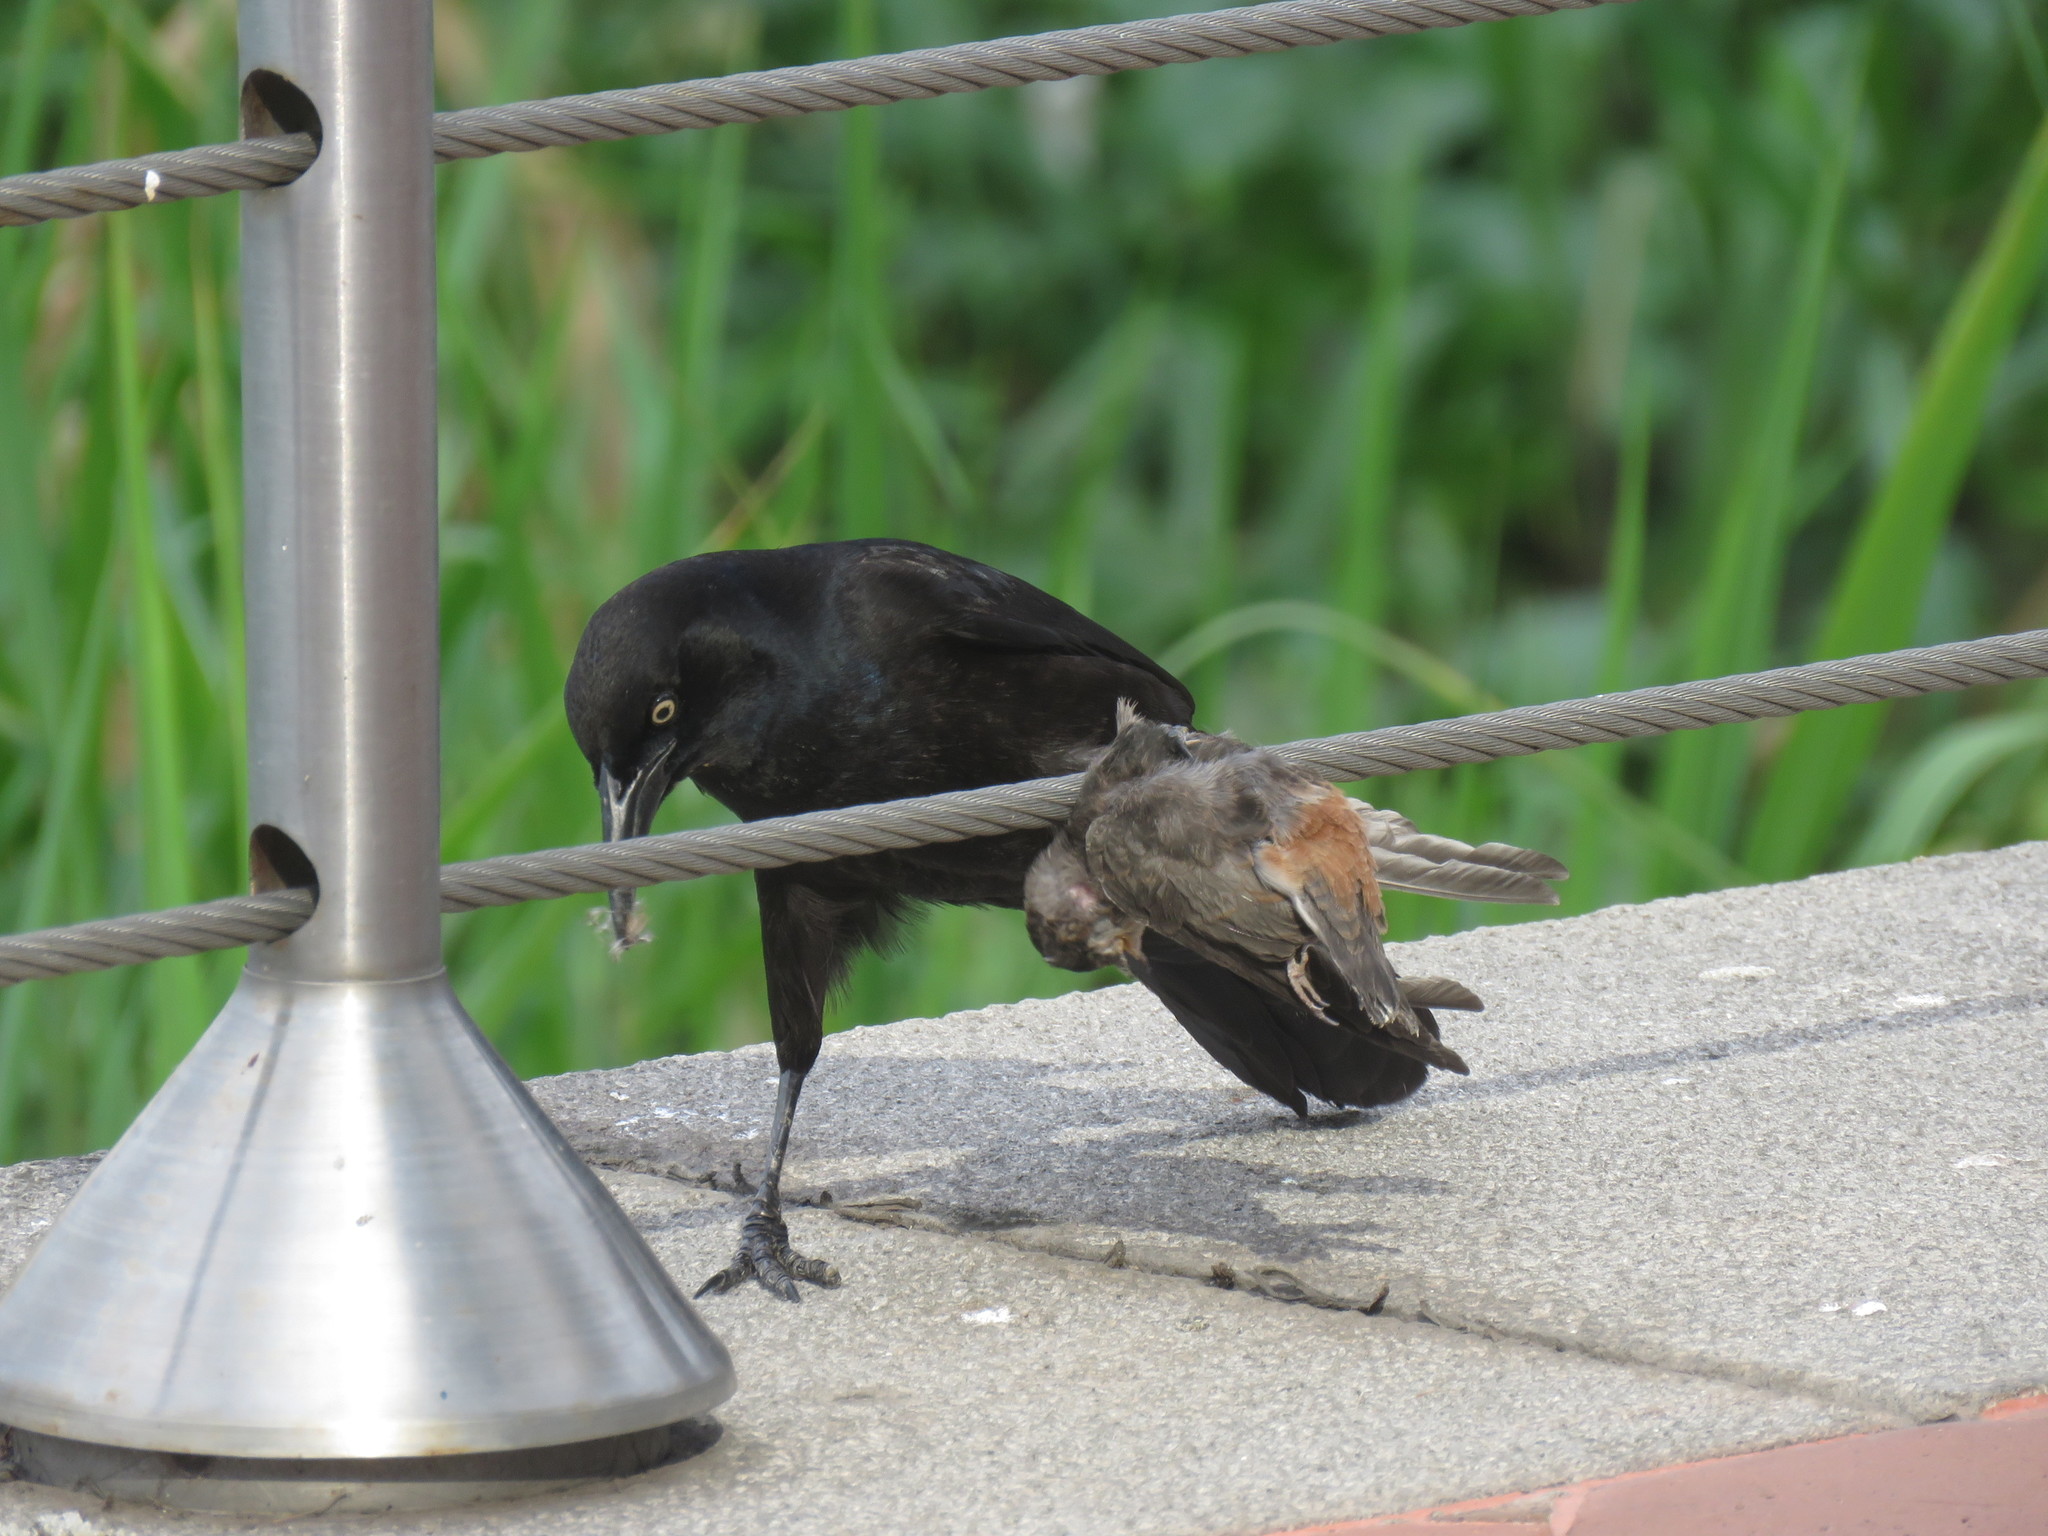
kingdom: Animalia
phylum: Chordata
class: Aves
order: Passeriformes
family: Icteridae
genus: Quiscalus
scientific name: Quiscalus mexicanus
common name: Great-tailed grackle
